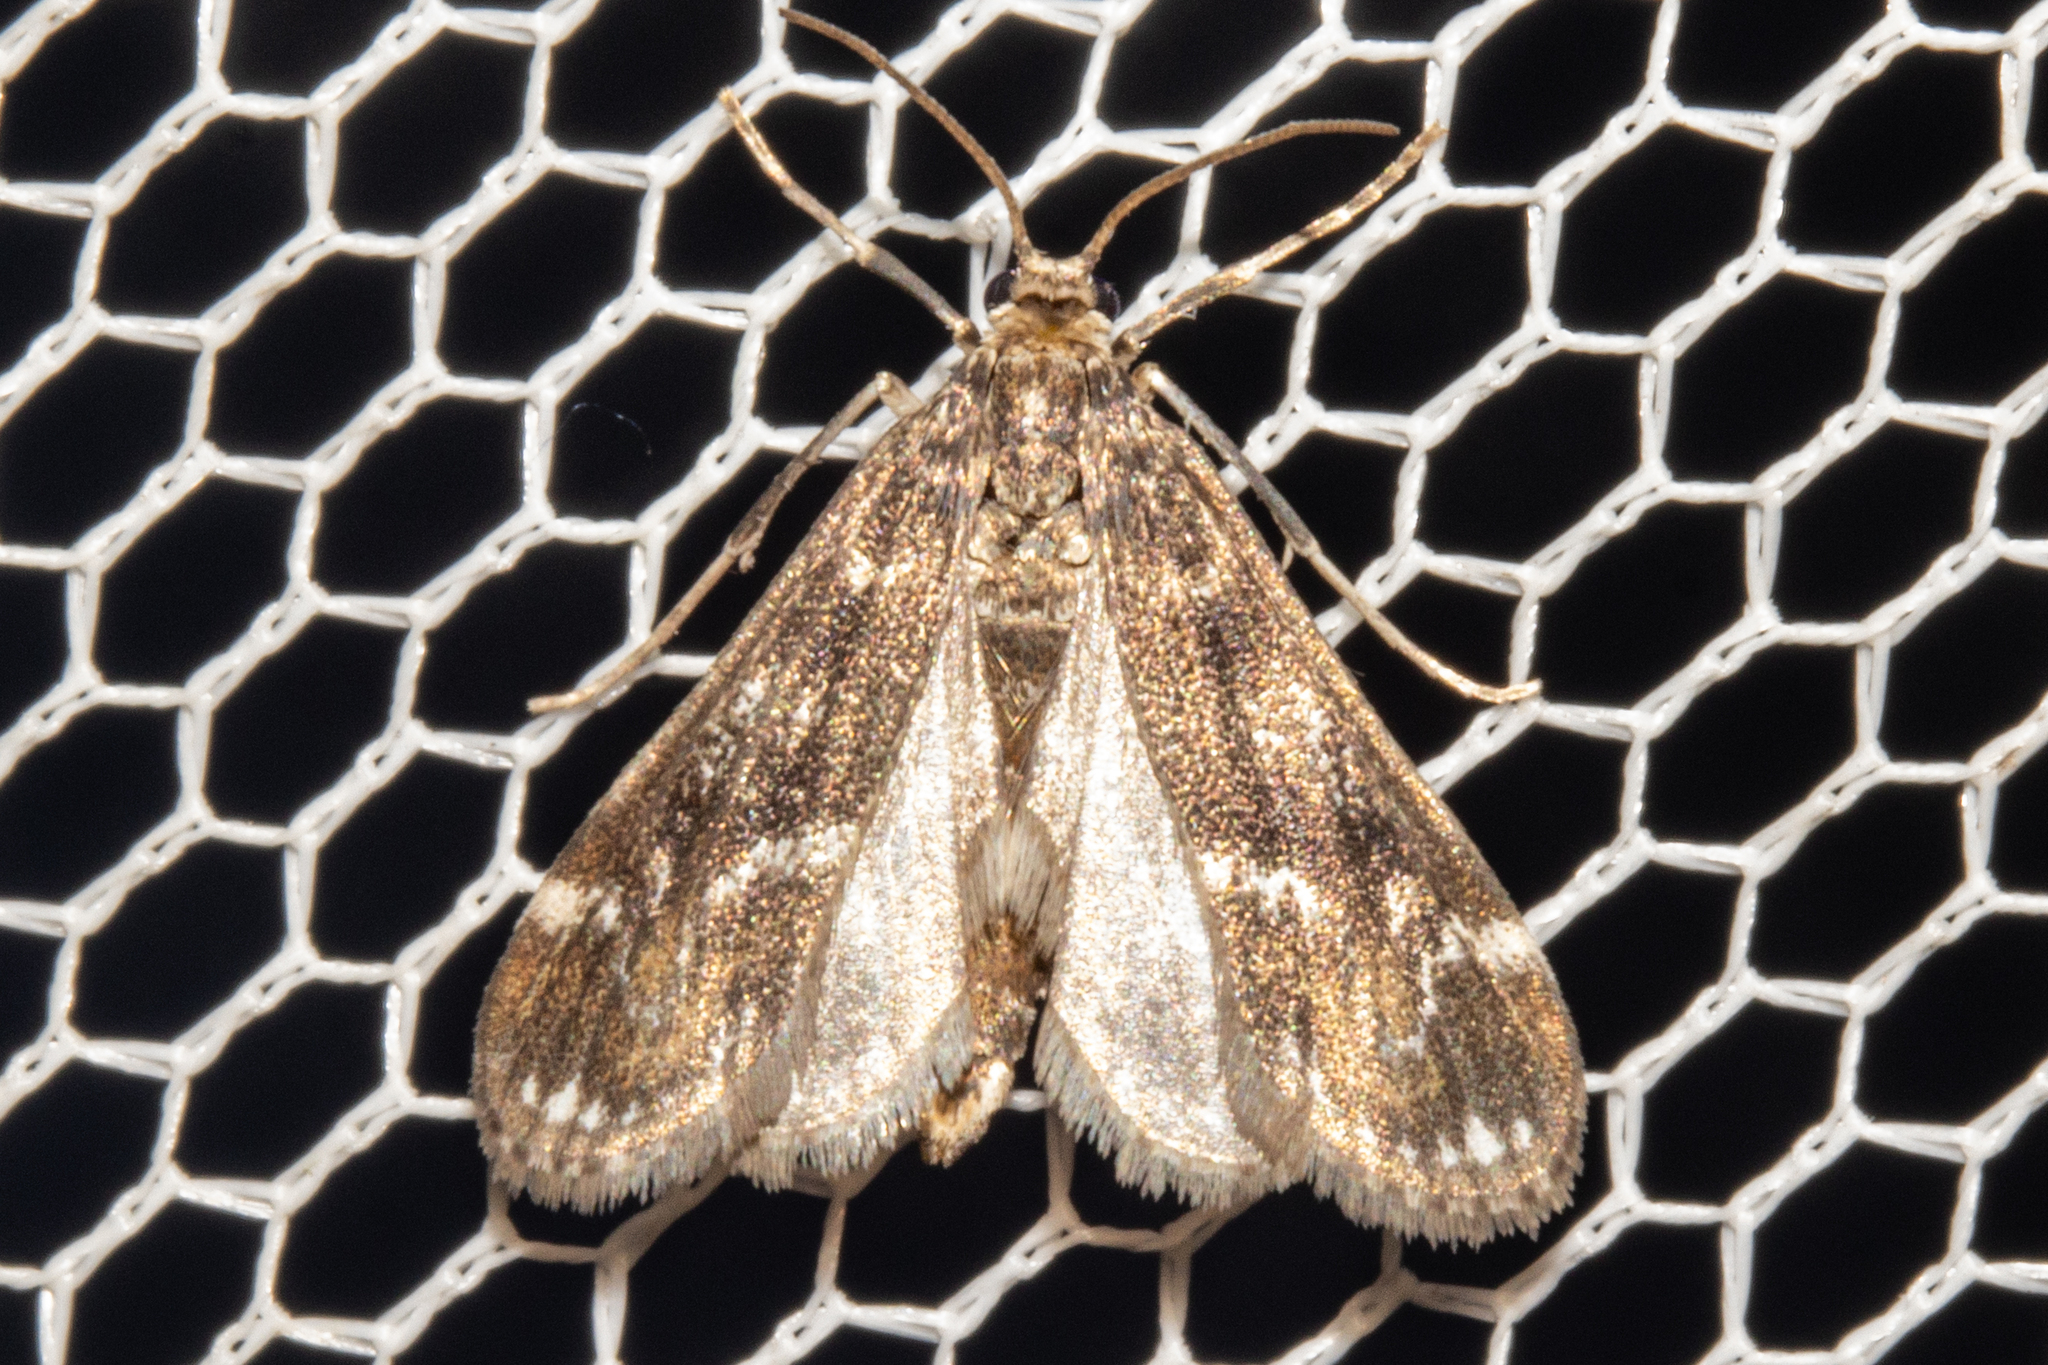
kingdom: Animalia
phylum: Arthropoda
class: Insecta
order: Lepidoptera
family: Crambidae
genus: Hygraula
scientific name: Hygraula nitens
